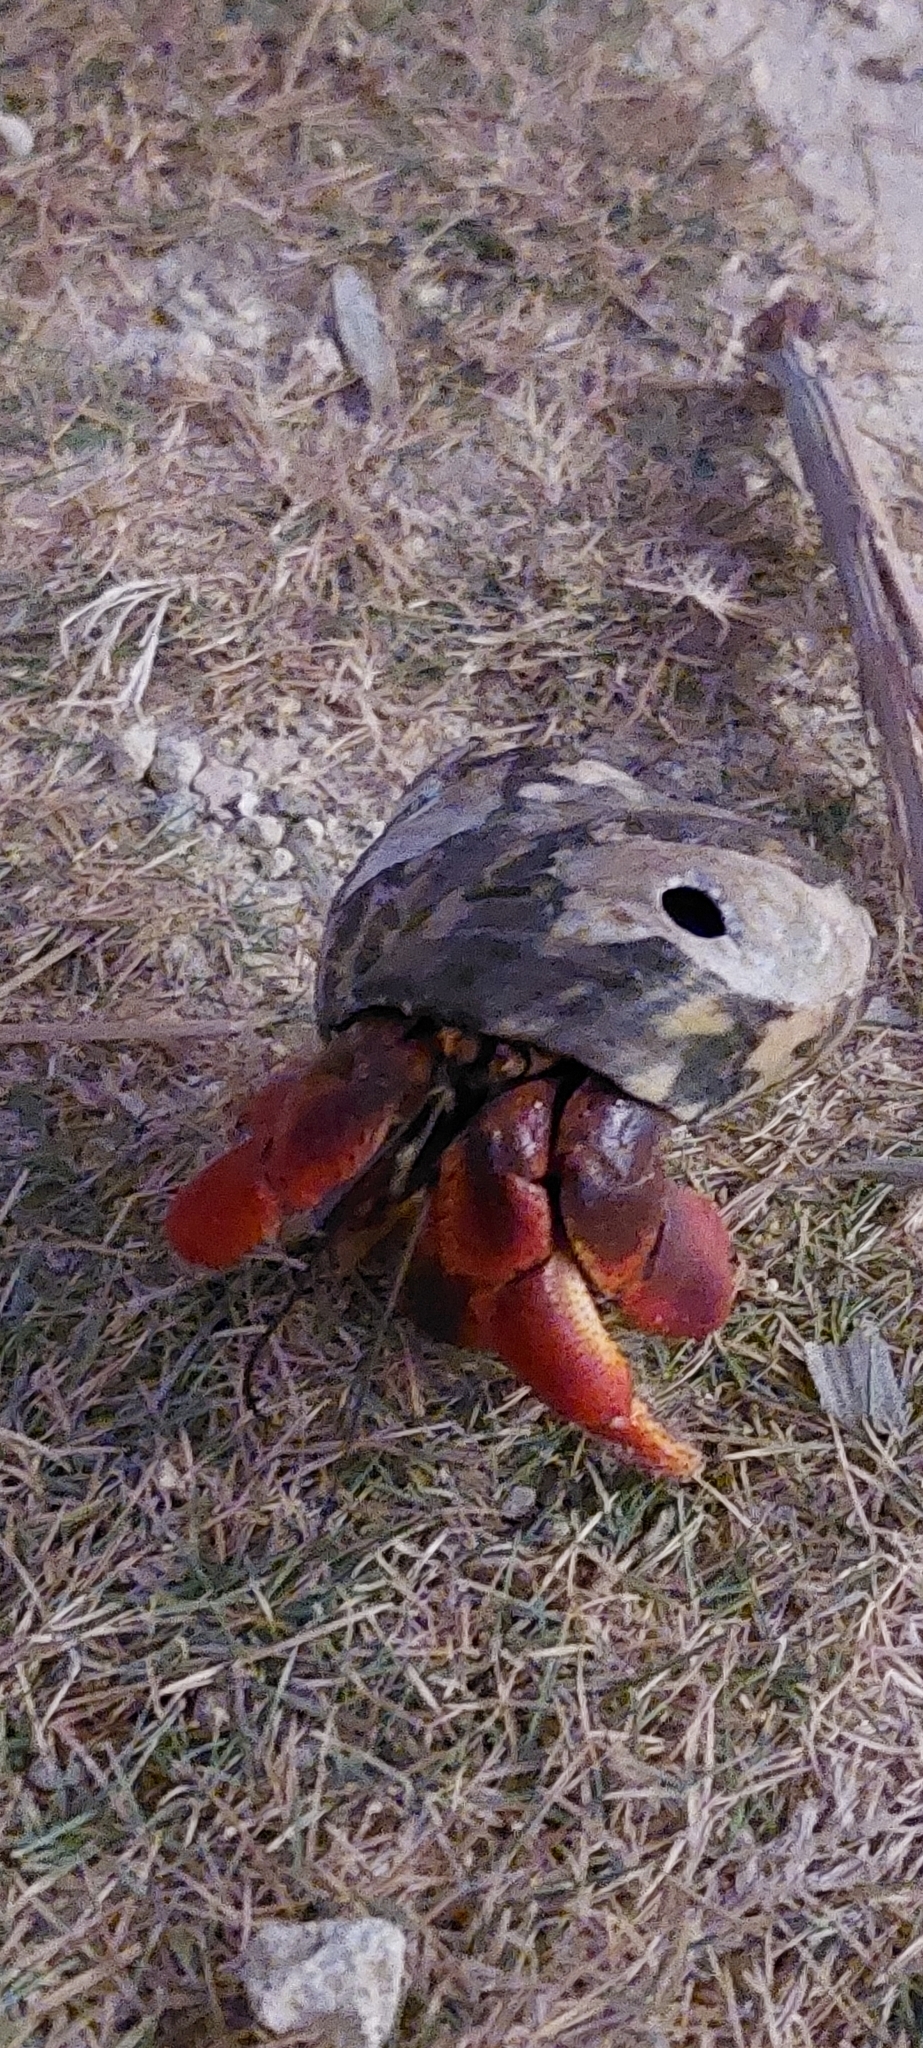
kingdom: Animalia
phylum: Arthropoda
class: Malacostraca
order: Decapoda
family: Coenobitidae
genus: Coenobita
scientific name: Coenobita clypeatus
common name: Caribbean hermit crab
